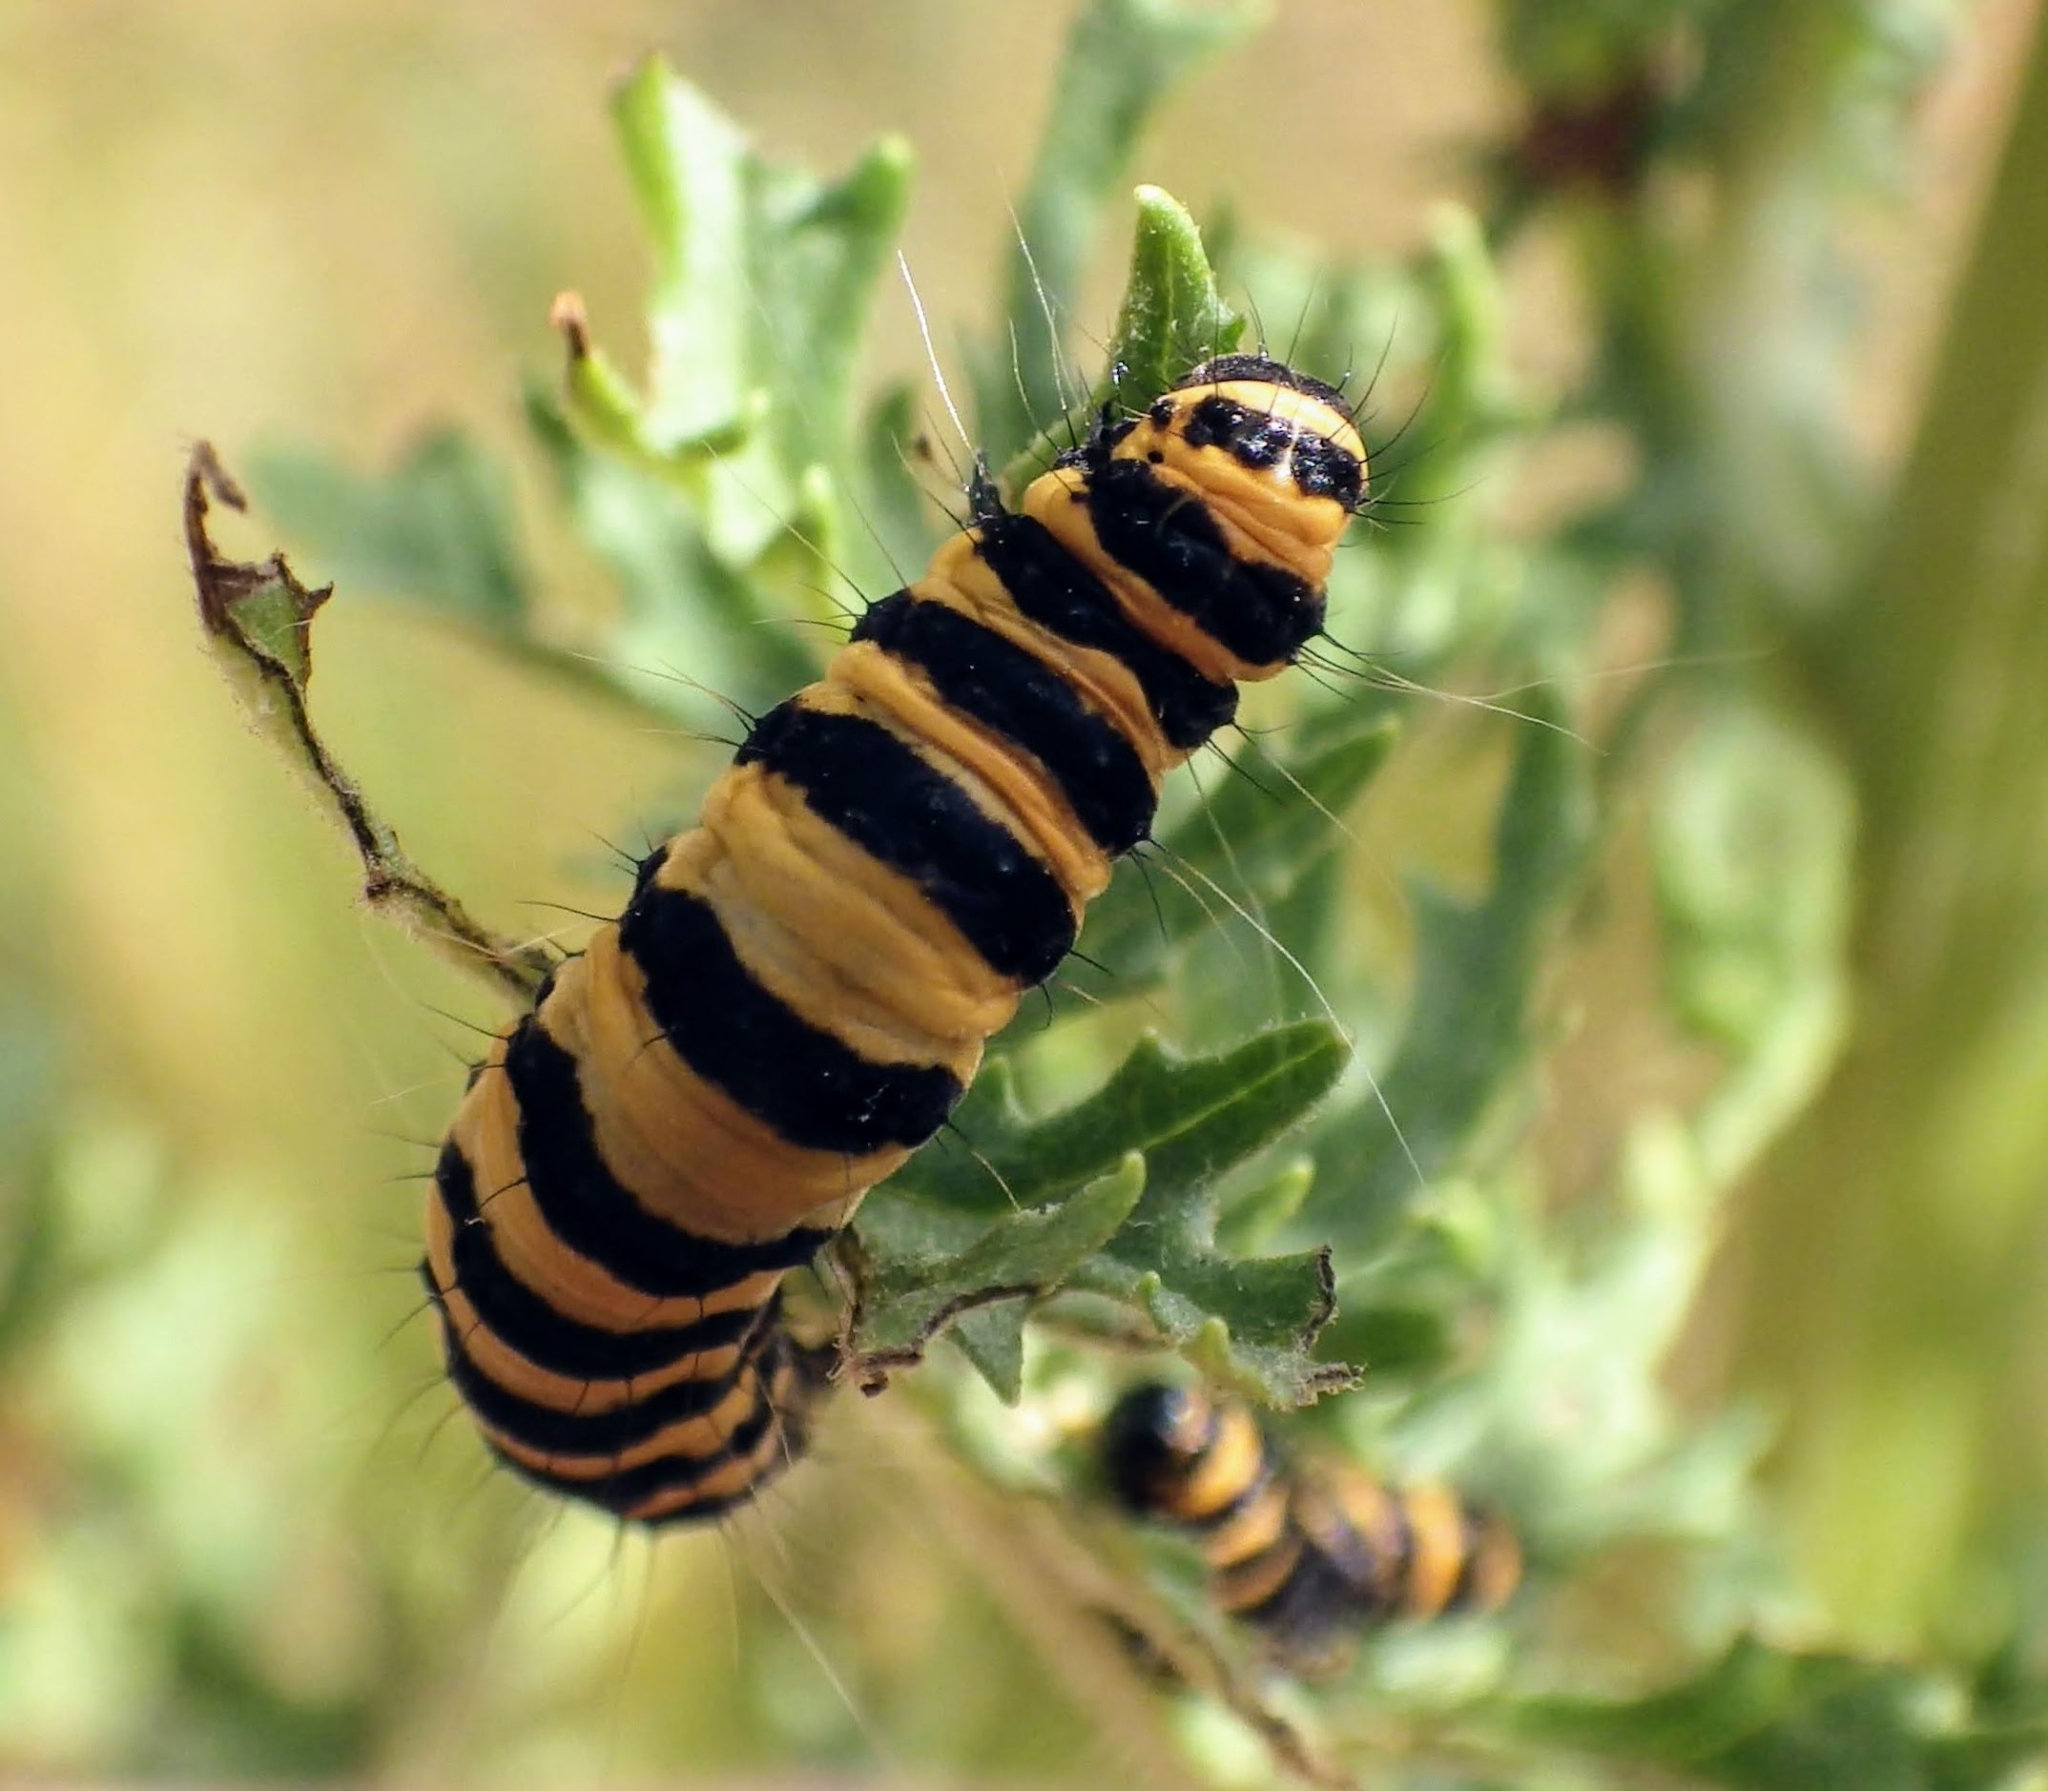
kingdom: Animalia
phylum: Arthropoda
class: Insecta
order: Lepidoptera
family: Erebidae
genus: Tyria
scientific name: Tyria jacobaeae
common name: Cinnabar
